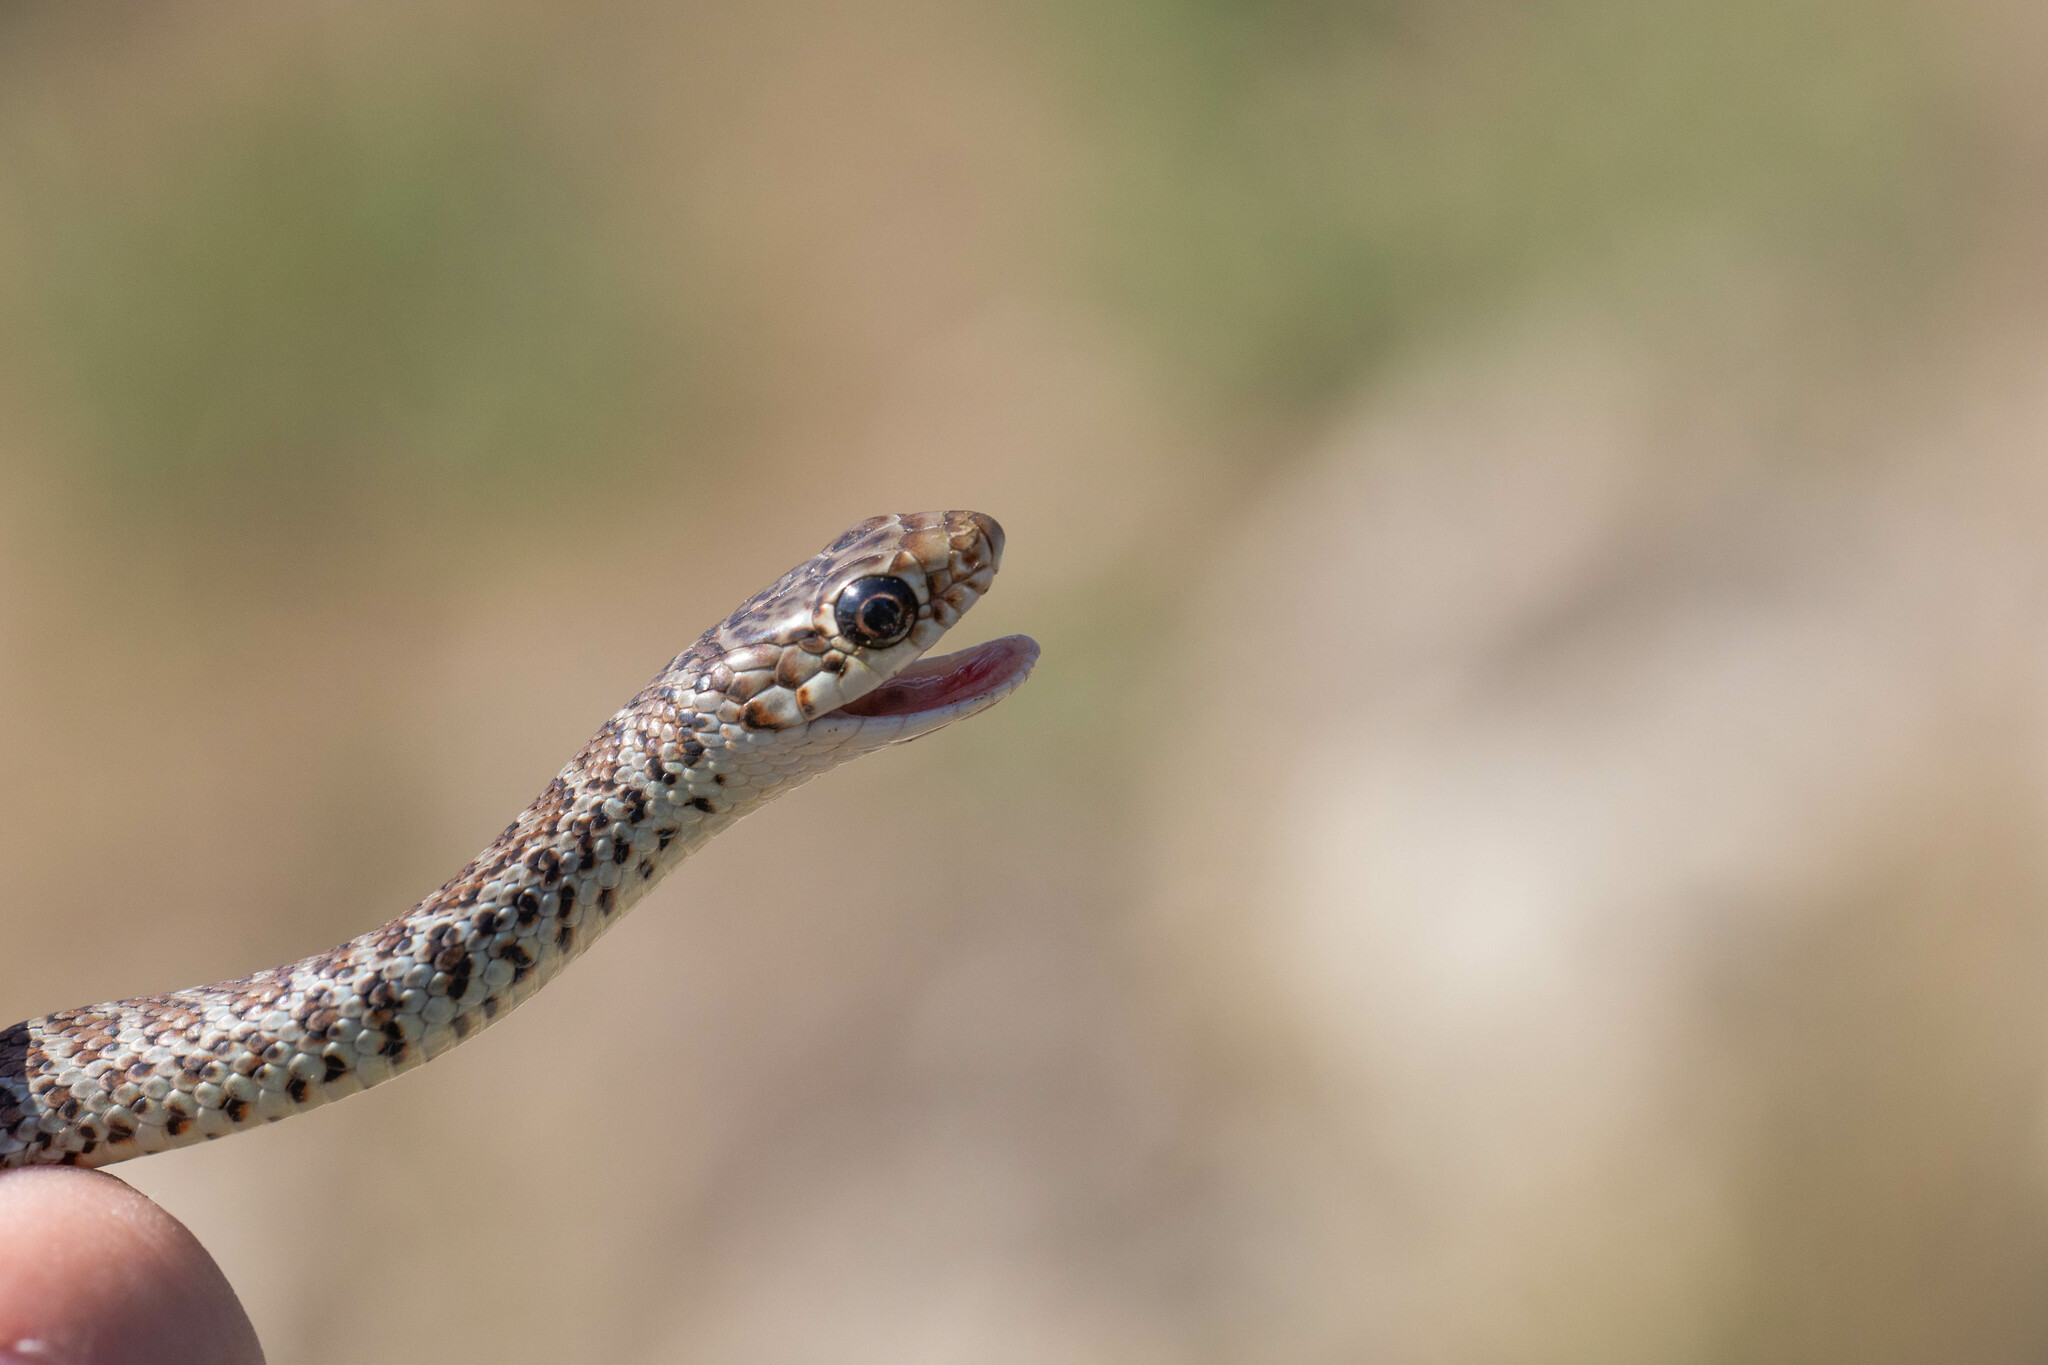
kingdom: Animalia
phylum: Chordata
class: Squamata
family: Colubridae
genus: Coluber
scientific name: Coluber constrictor
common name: Eastern racer
